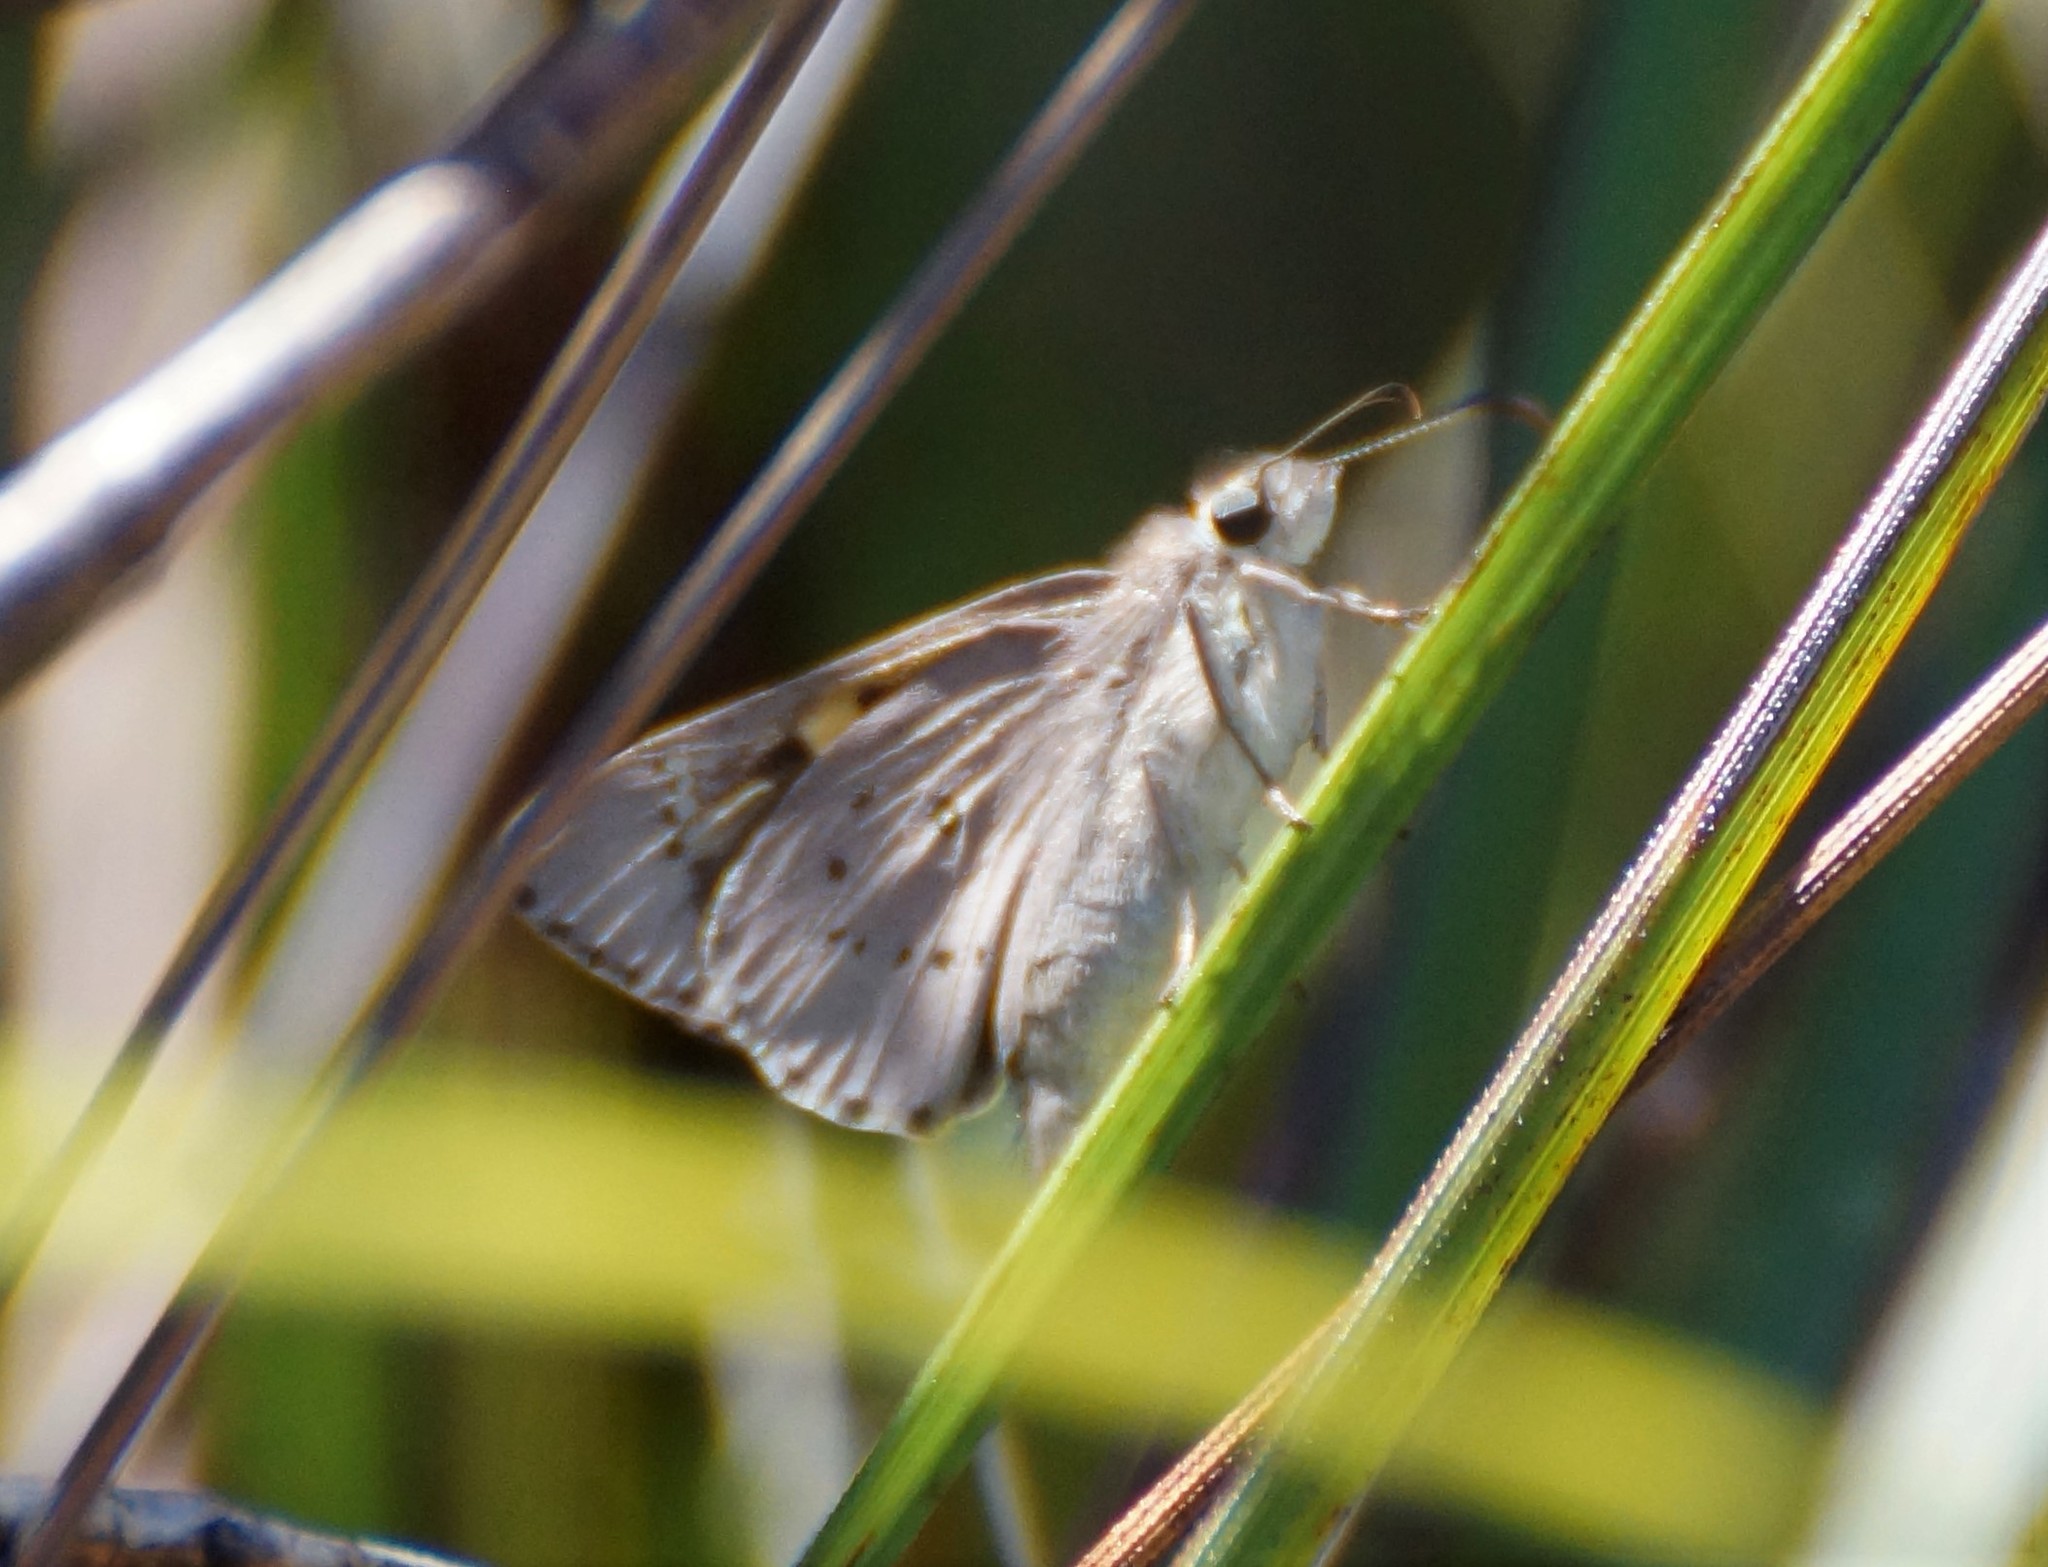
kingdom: Animalia
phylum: Arthropoda
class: Insecta
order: Lepidoptera
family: Hesperiidae
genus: Hesperilla
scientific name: Hesperilla donnysa
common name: Varied sedge-skipper
